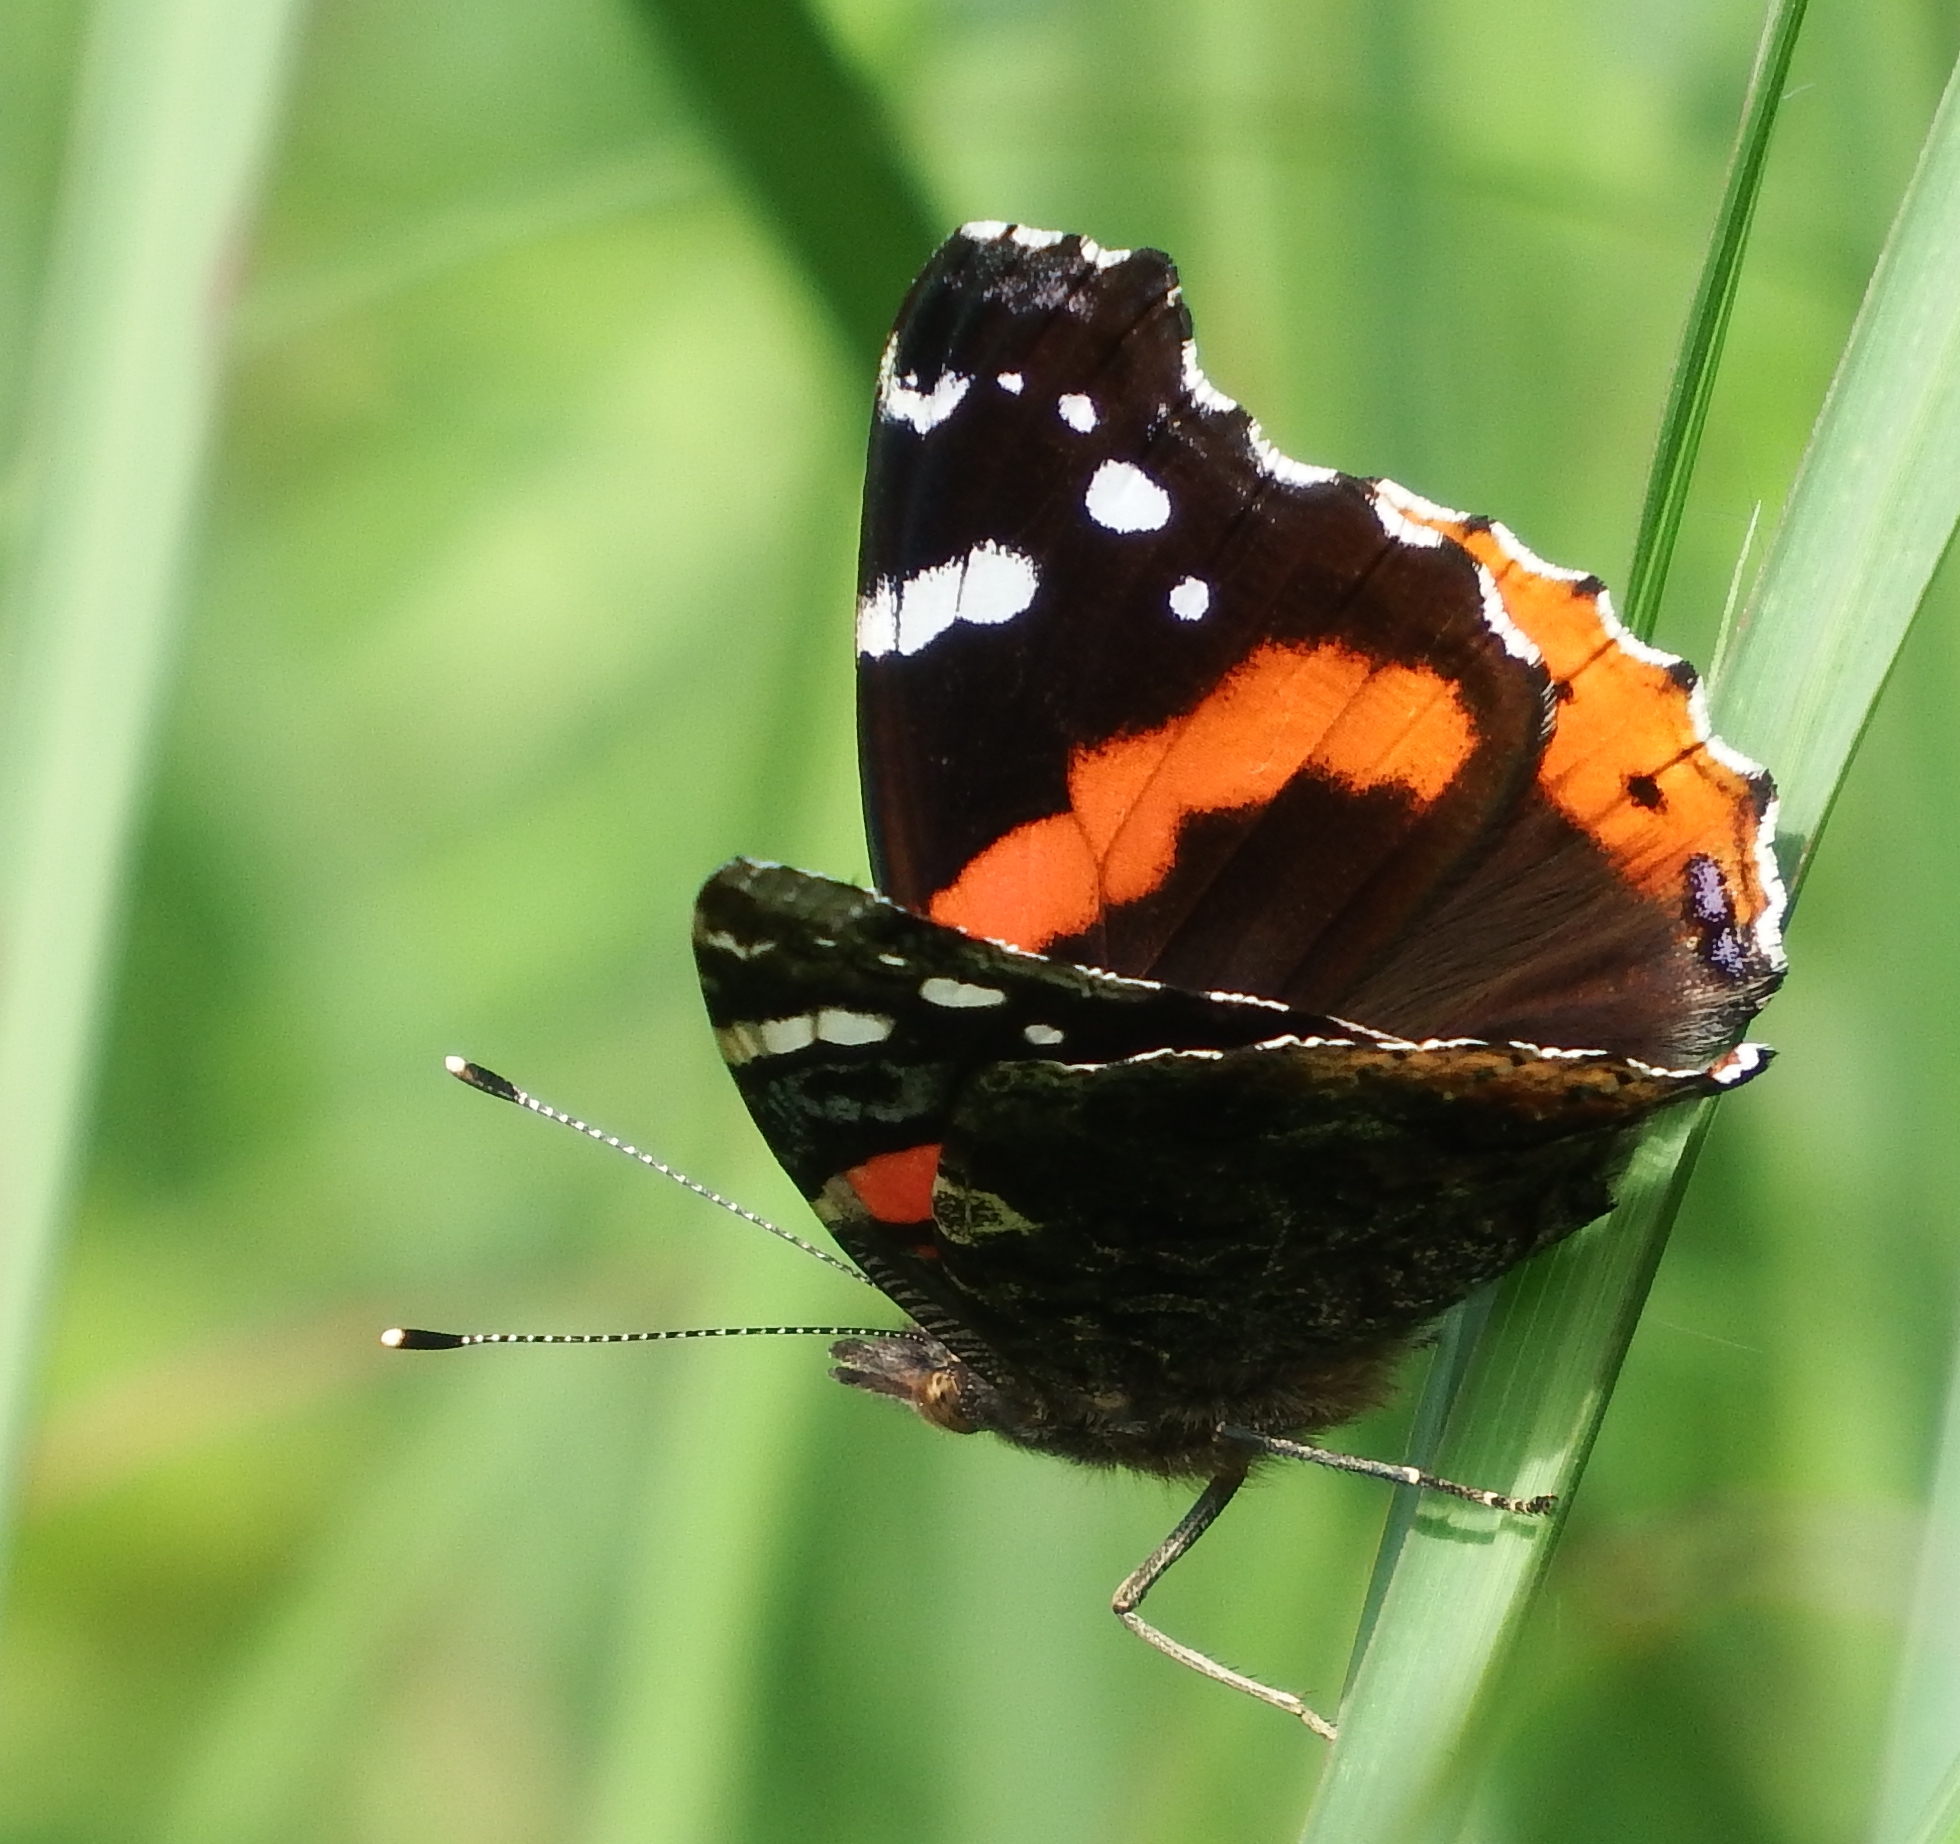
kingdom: Animalia
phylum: Arthropoda
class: Insecta
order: Lepidoptera
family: Nymphalidae
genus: Vanessa
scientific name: Vanessa atalanta
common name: Red admiral
